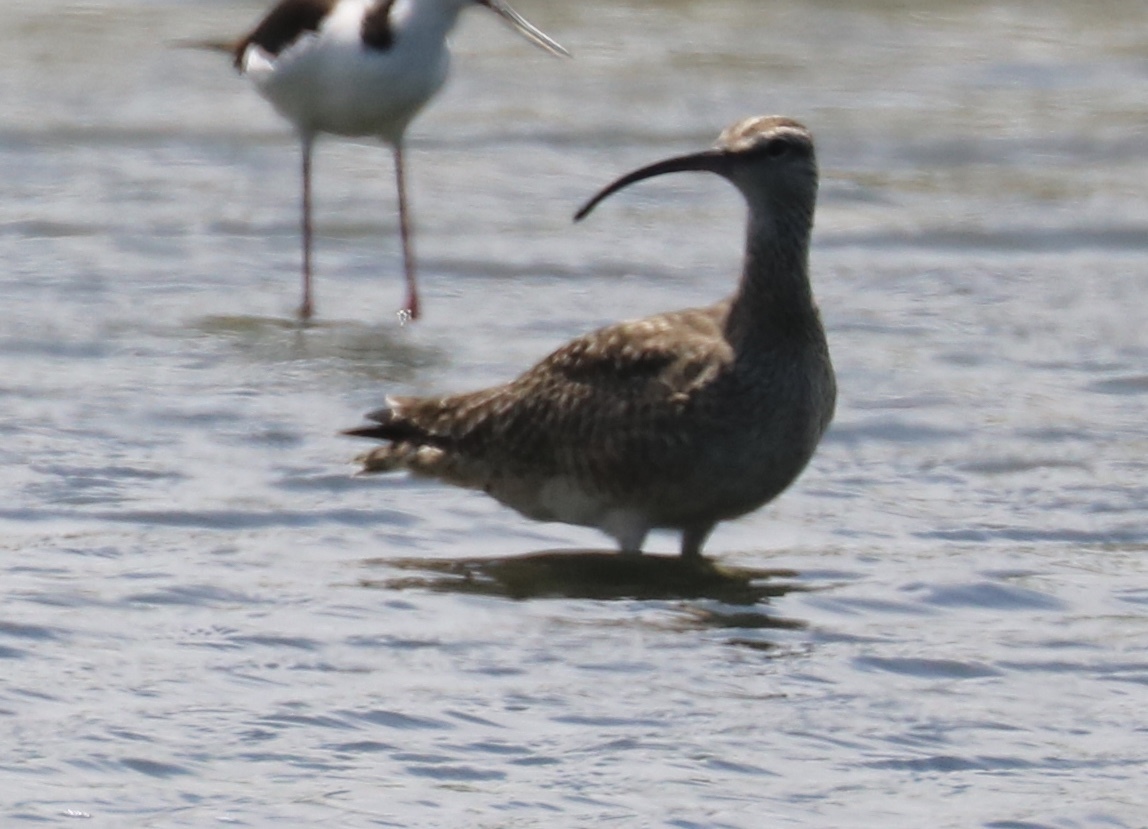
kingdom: Animalia
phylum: Chordata
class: Aves
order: Charadriiformes
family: Scolopacidae
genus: Numenius
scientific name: Numenius phaeopus
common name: Whimbrel
